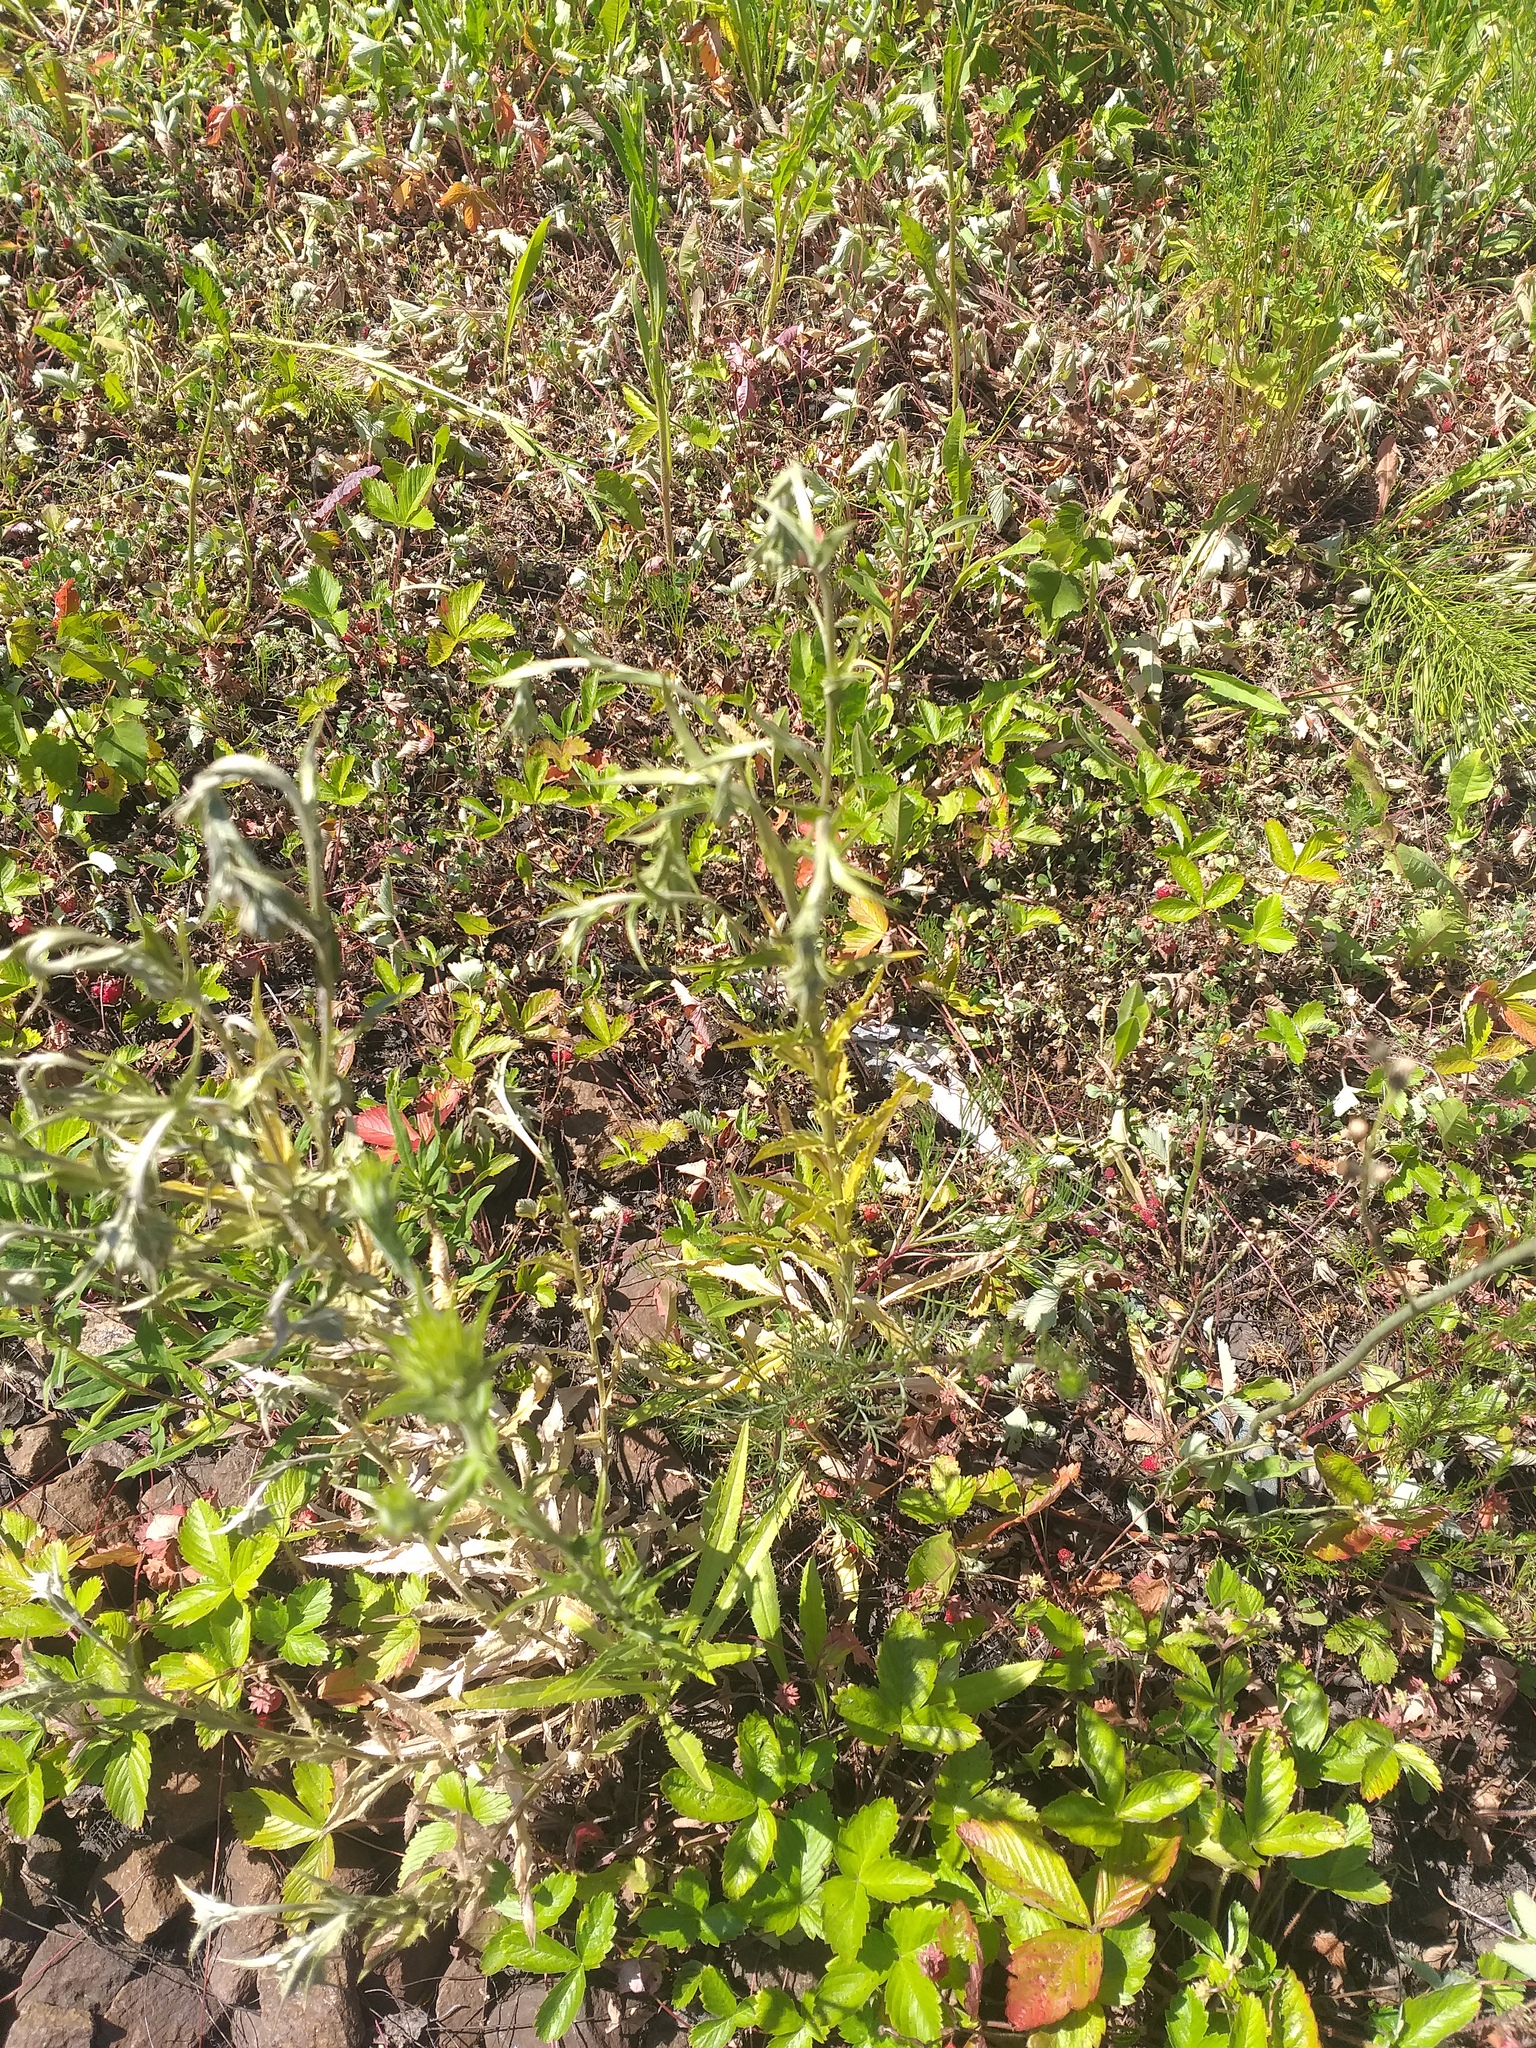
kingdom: Plantae
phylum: Tracheophyta
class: Magnoliopsida
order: Asterales
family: Asteraceae
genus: Carlina
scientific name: Carlina biebersteinii
